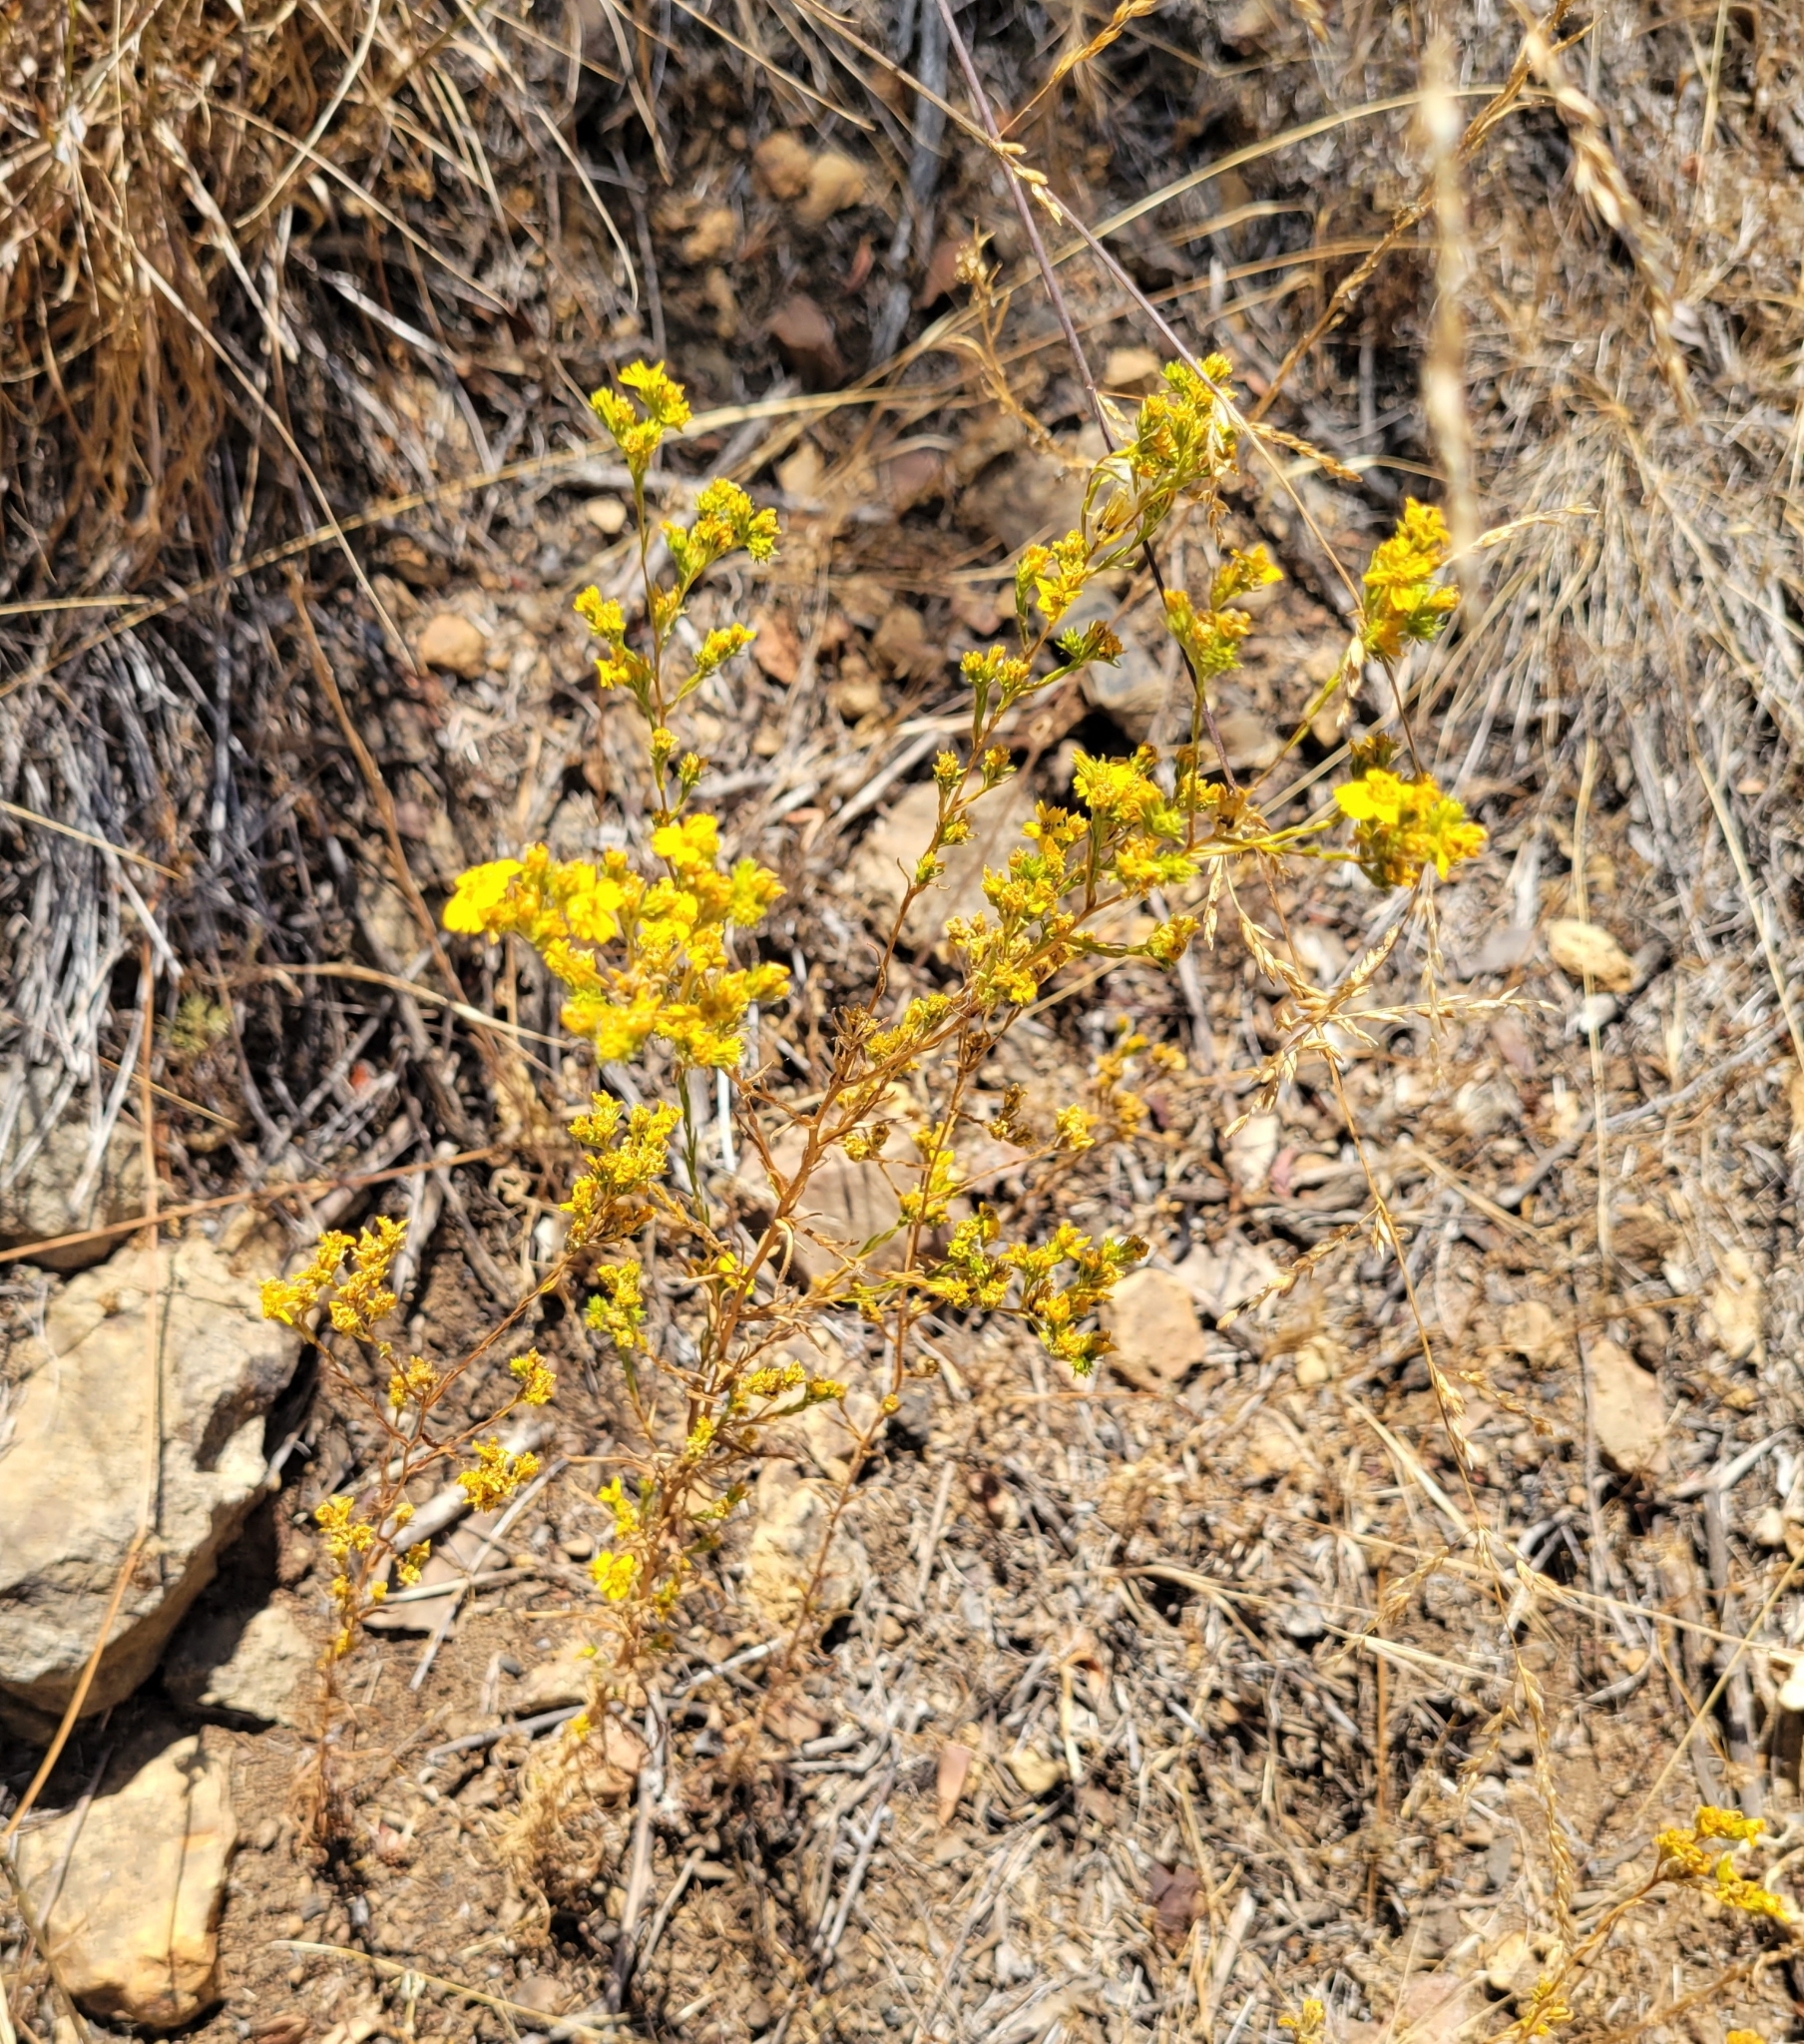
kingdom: Plantae
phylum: Tracheophyta
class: Magnoliopsida
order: Asterales
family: Asteraceae
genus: Deinandra
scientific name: Deinandra fasciculata
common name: Clustered tarweed
